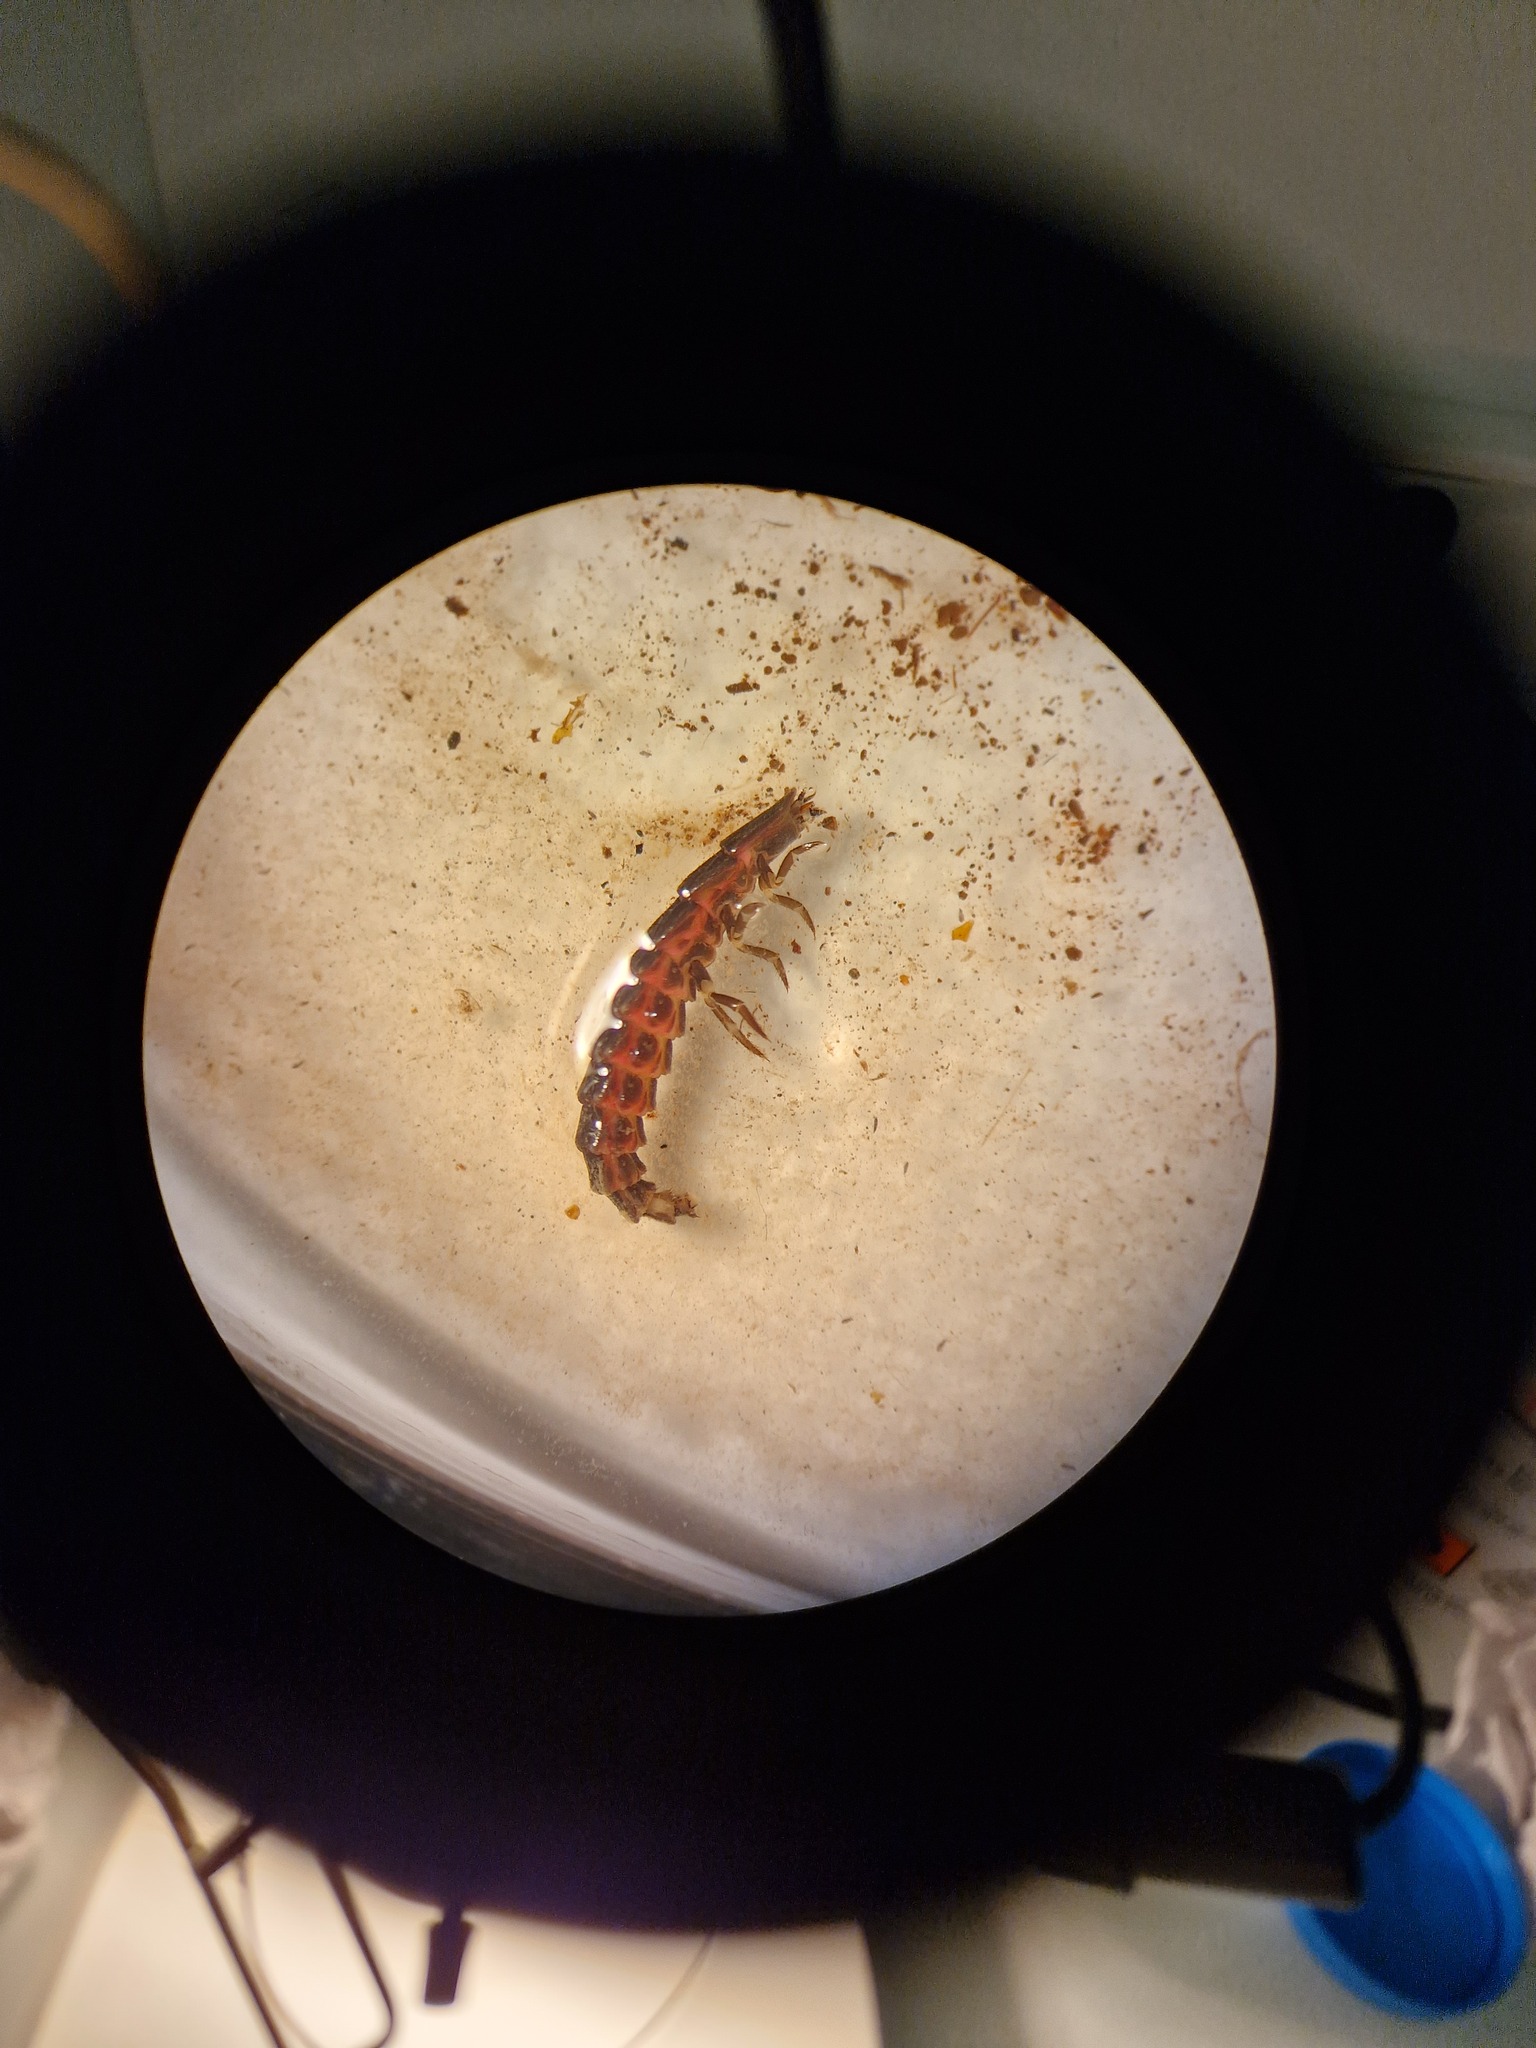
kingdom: Animalia
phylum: Arthropoda
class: Insecta
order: Coleoptera
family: Lampyridae
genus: Nyctophila
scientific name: Nyctophila reichii
